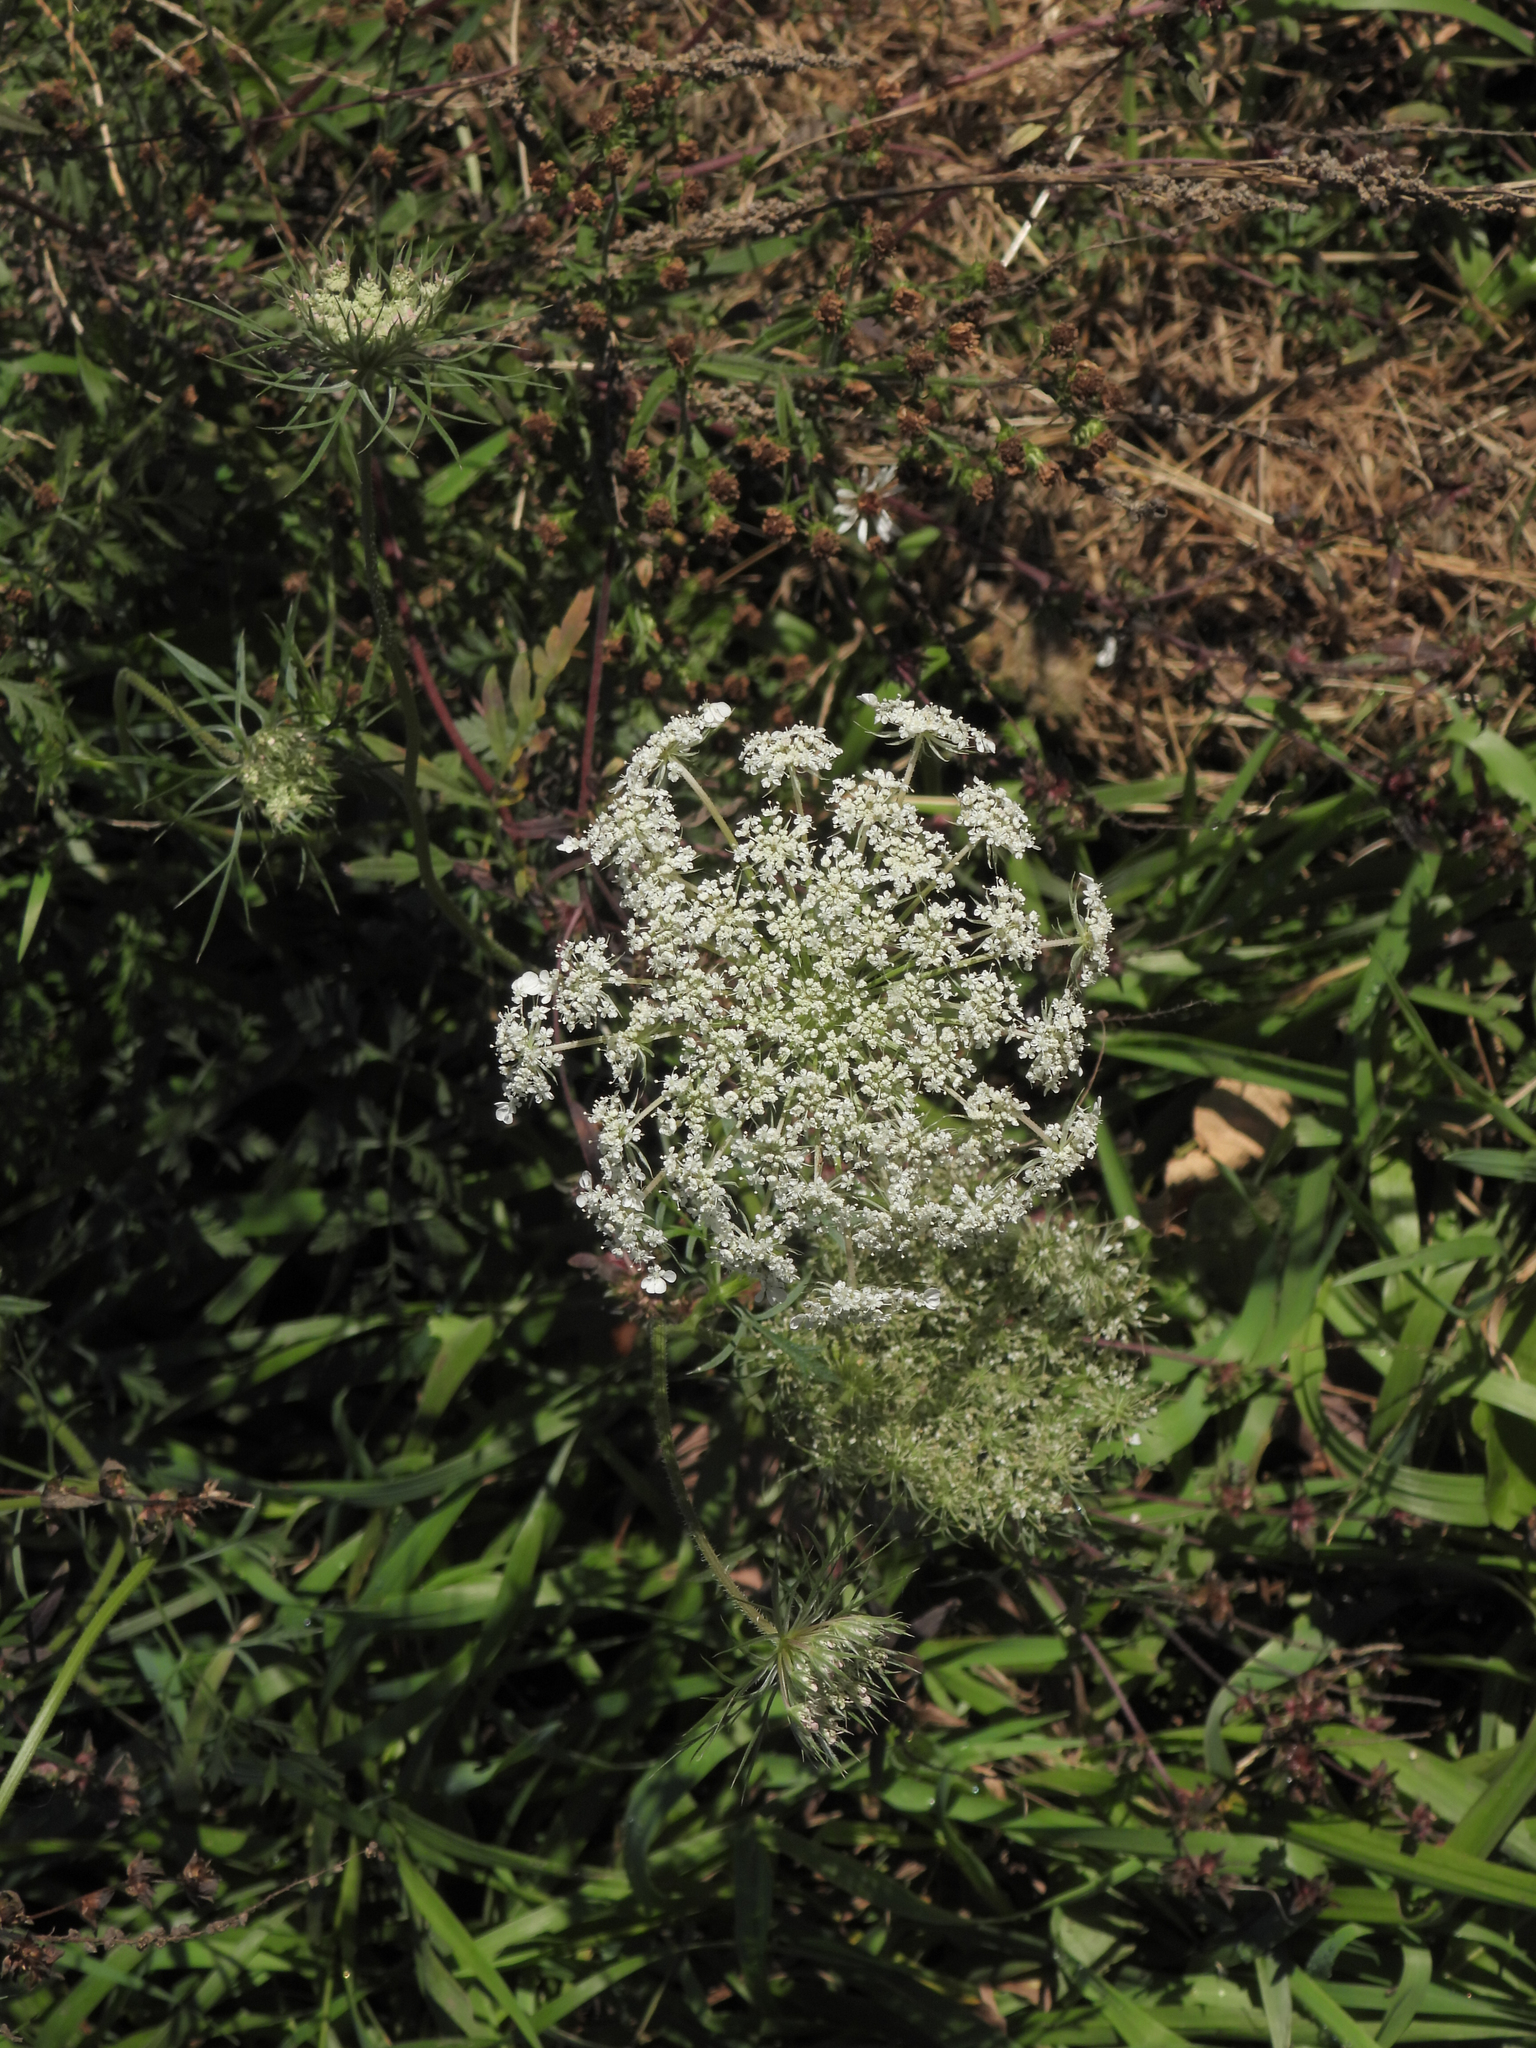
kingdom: Plantae
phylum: Tracheophyta
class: Magnoliopsida
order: Apiales
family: Apiaceae
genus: Daucus
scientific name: Daucus carota
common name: Wild carrot
